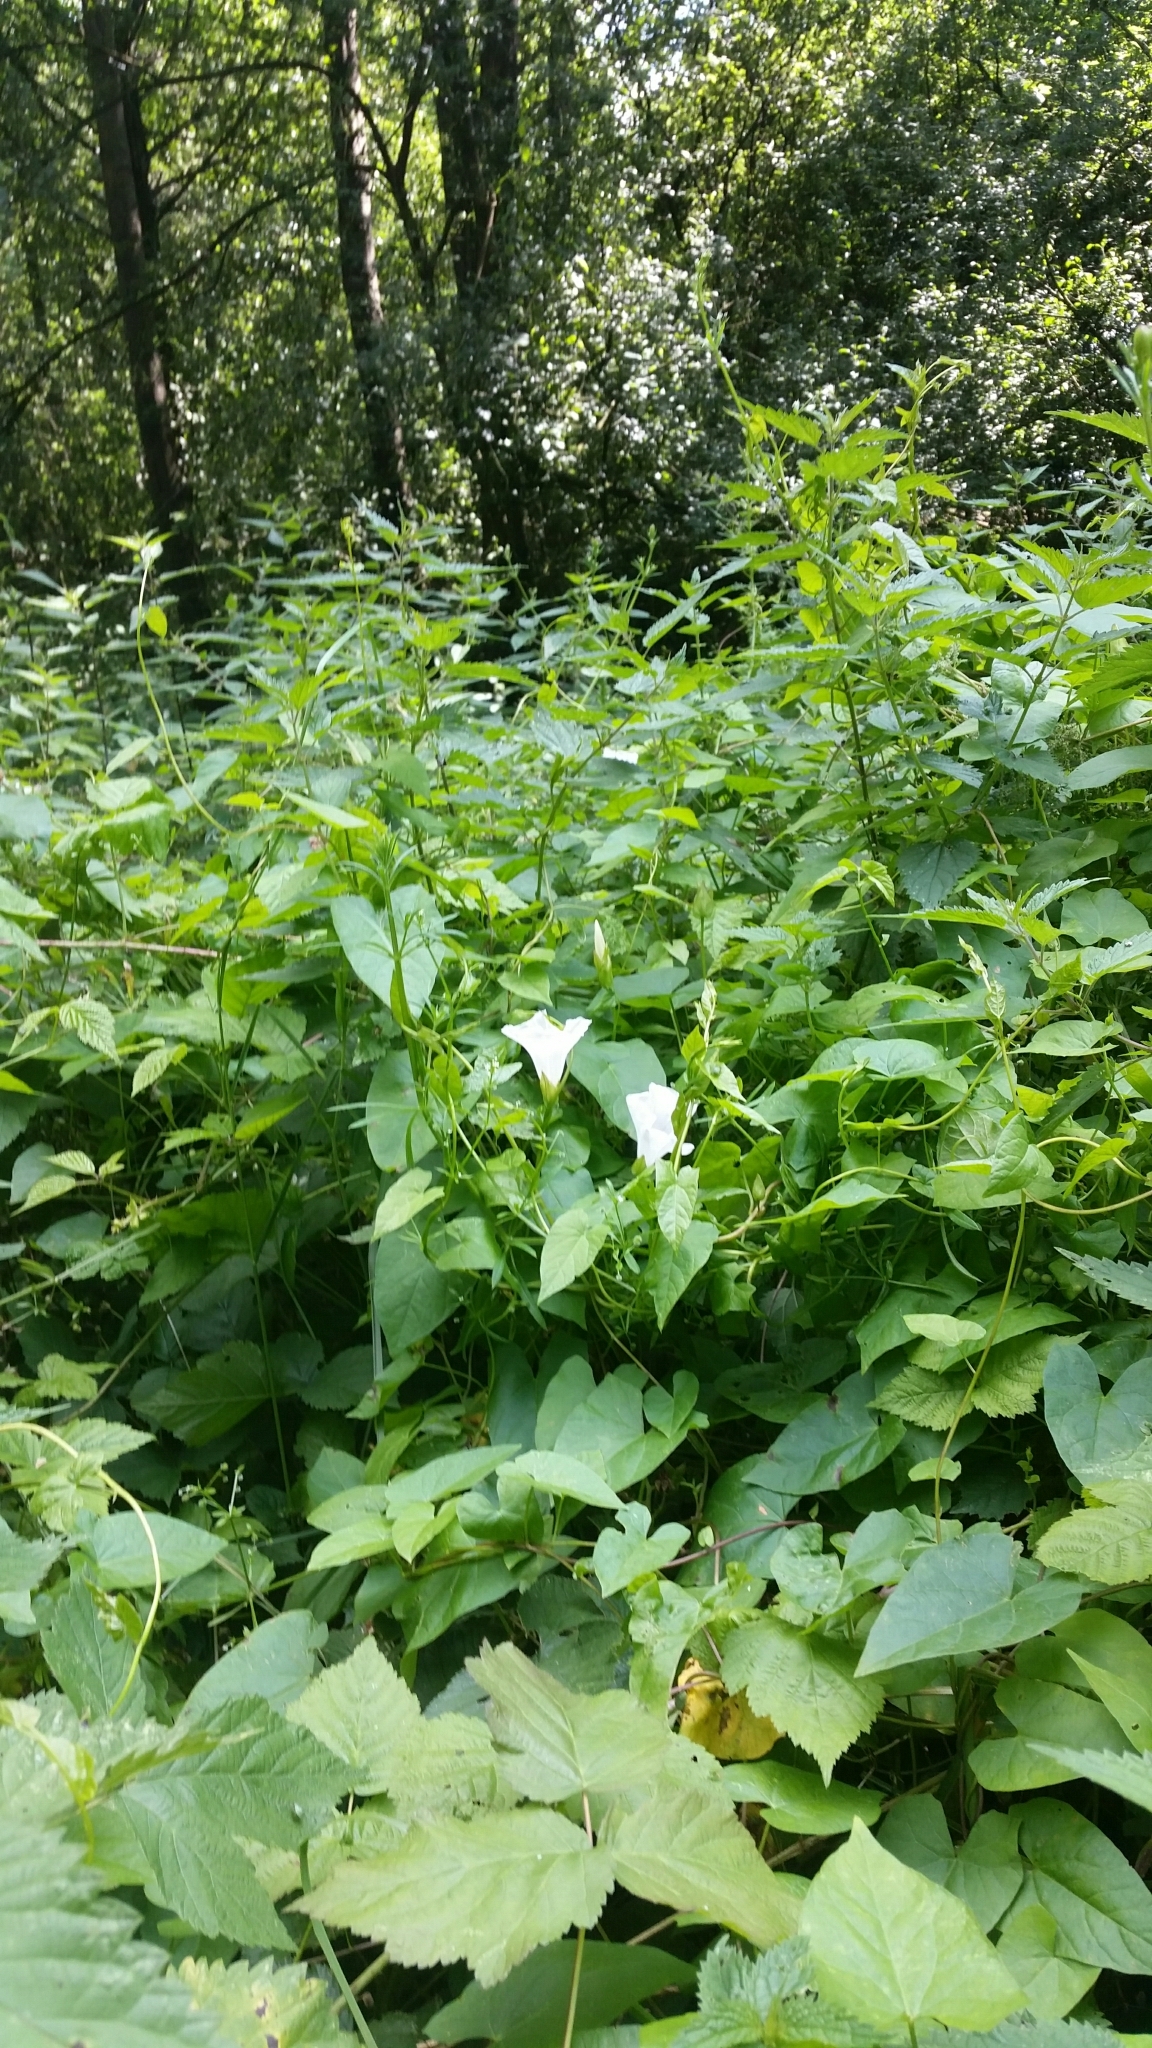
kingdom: Plantae
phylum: Tracheophyta
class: Magnoliopsida
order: Solanales
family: Convolvulaceae
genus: Calystegia
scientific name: Calystegia sepium
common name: Hedge bindweed
